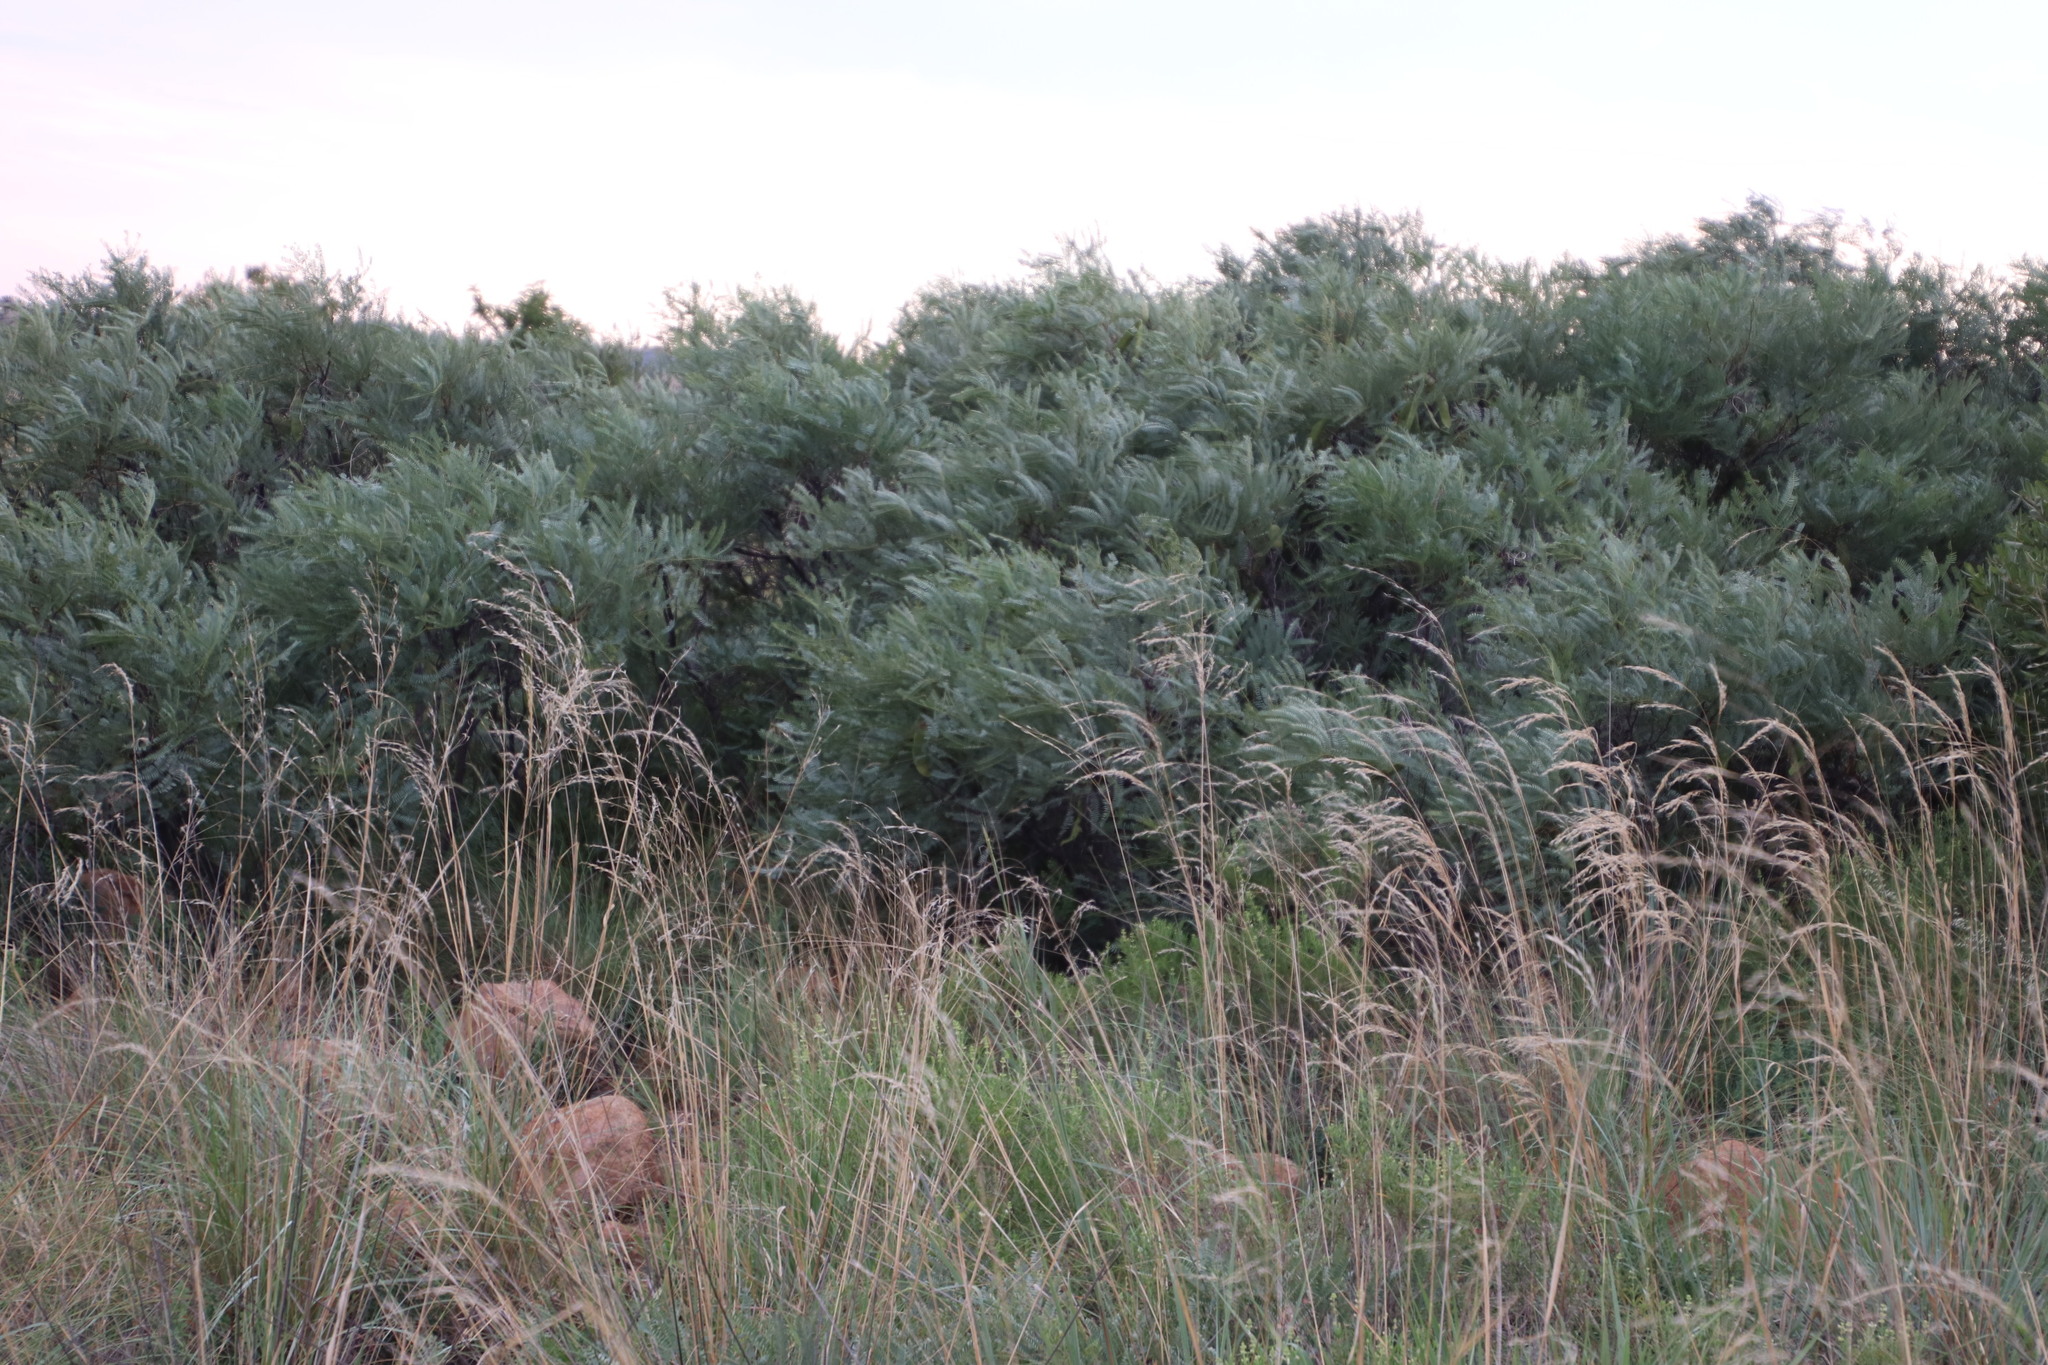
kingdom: Plantae
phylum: Tracheophyta
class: Magnoliopsida
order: Fabales
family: Fabaceae
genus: Elephantorrhiza
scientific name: Elephantorrhiza burkei
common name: Broad-pod elephant-root
